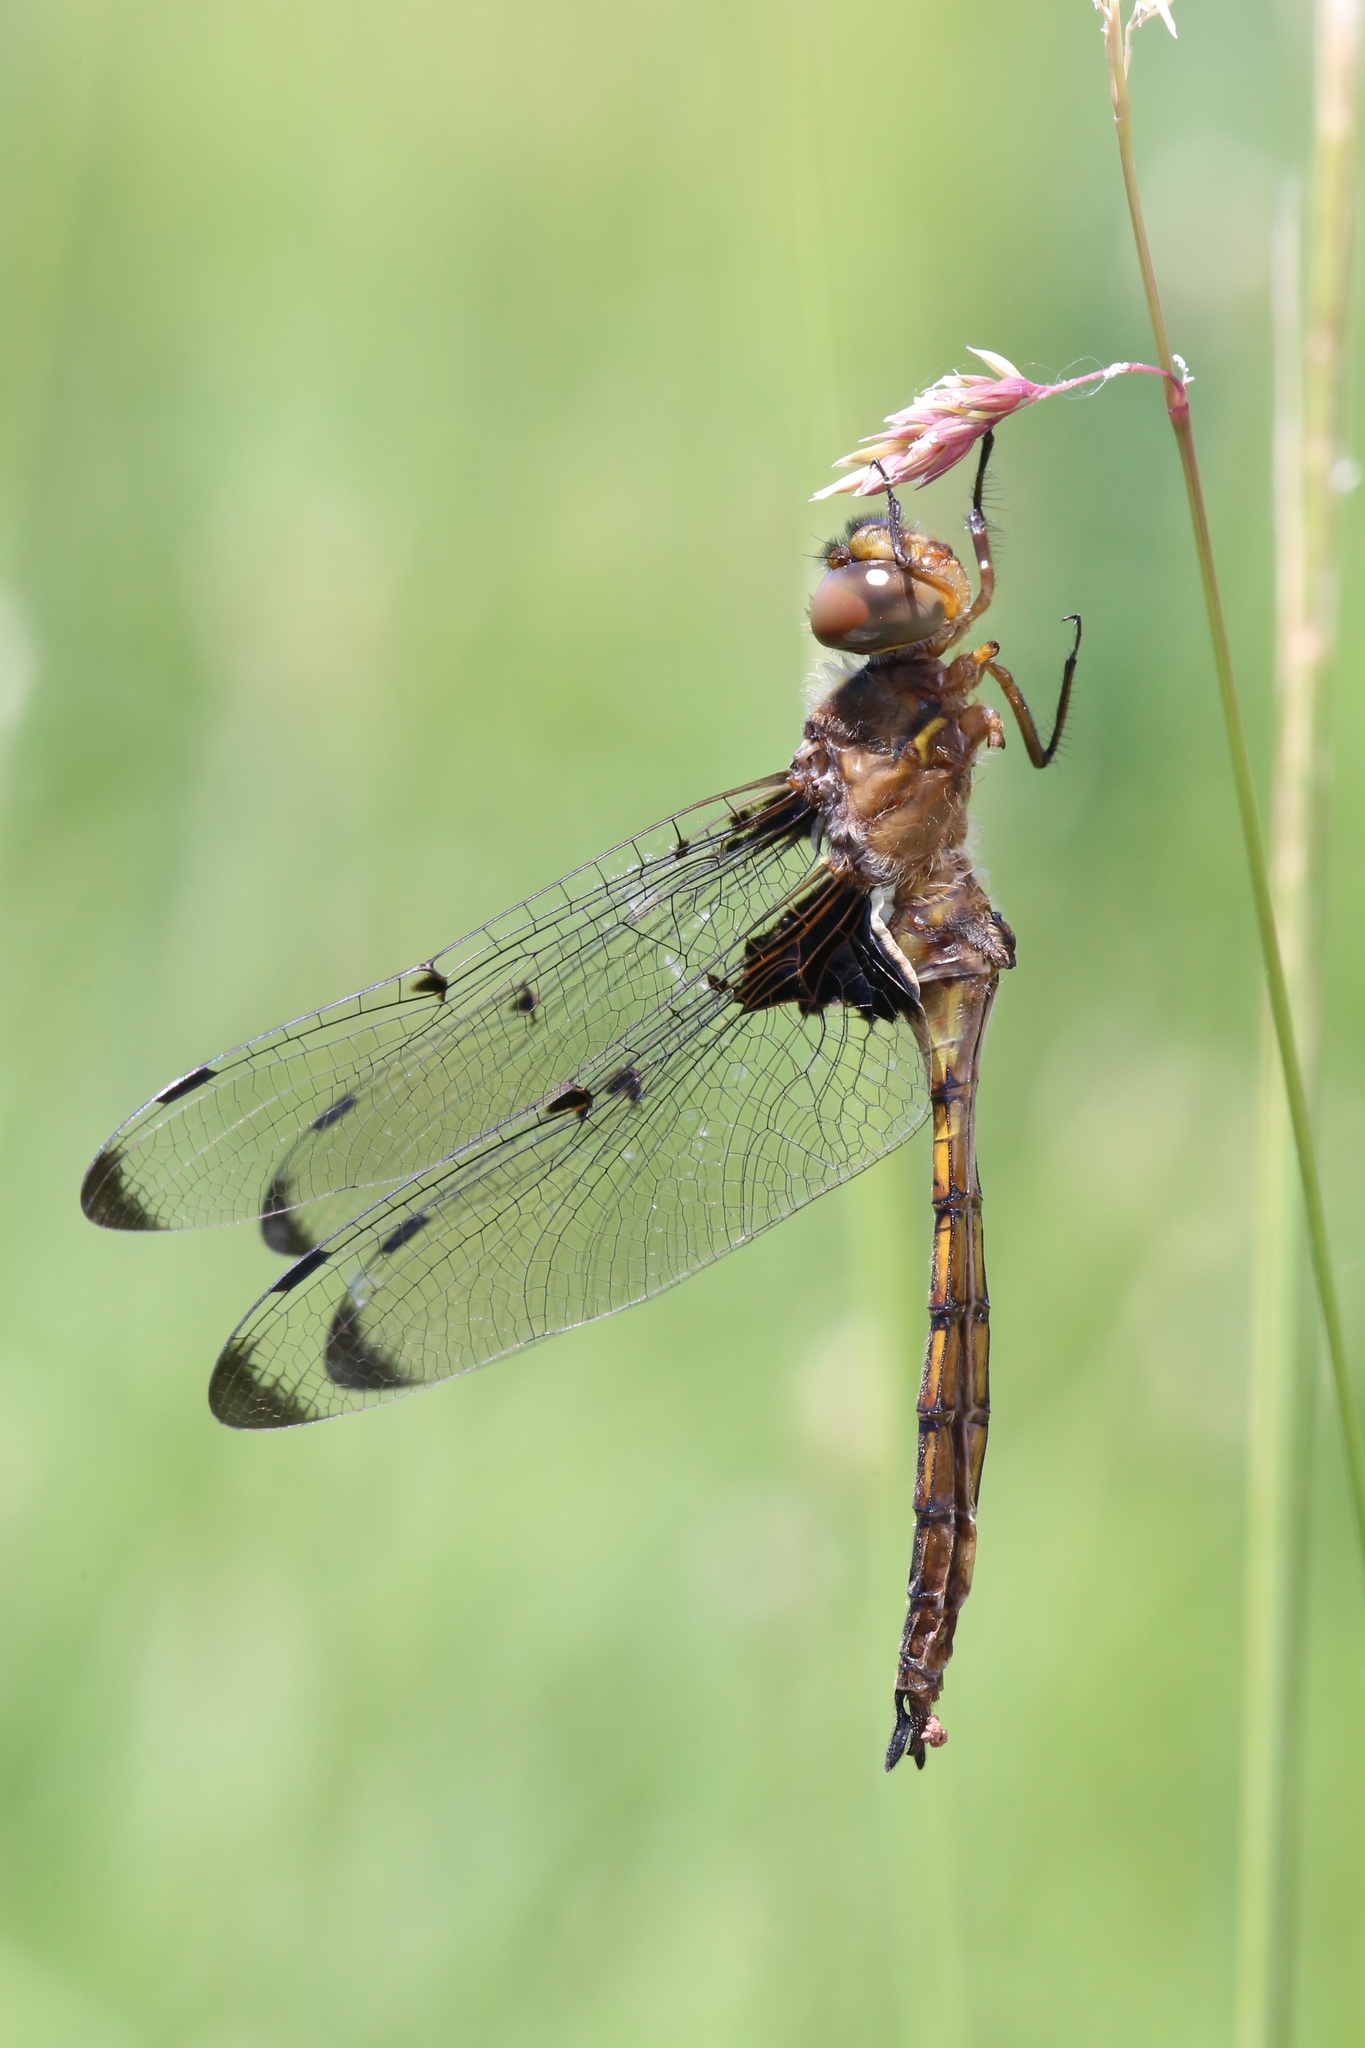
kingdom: Animalia
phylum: Arthropoda
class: Insecta
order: Odonata
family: Corduliidae
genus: Epitheca
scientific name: Epitheca princeps
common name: Prince baskettail
